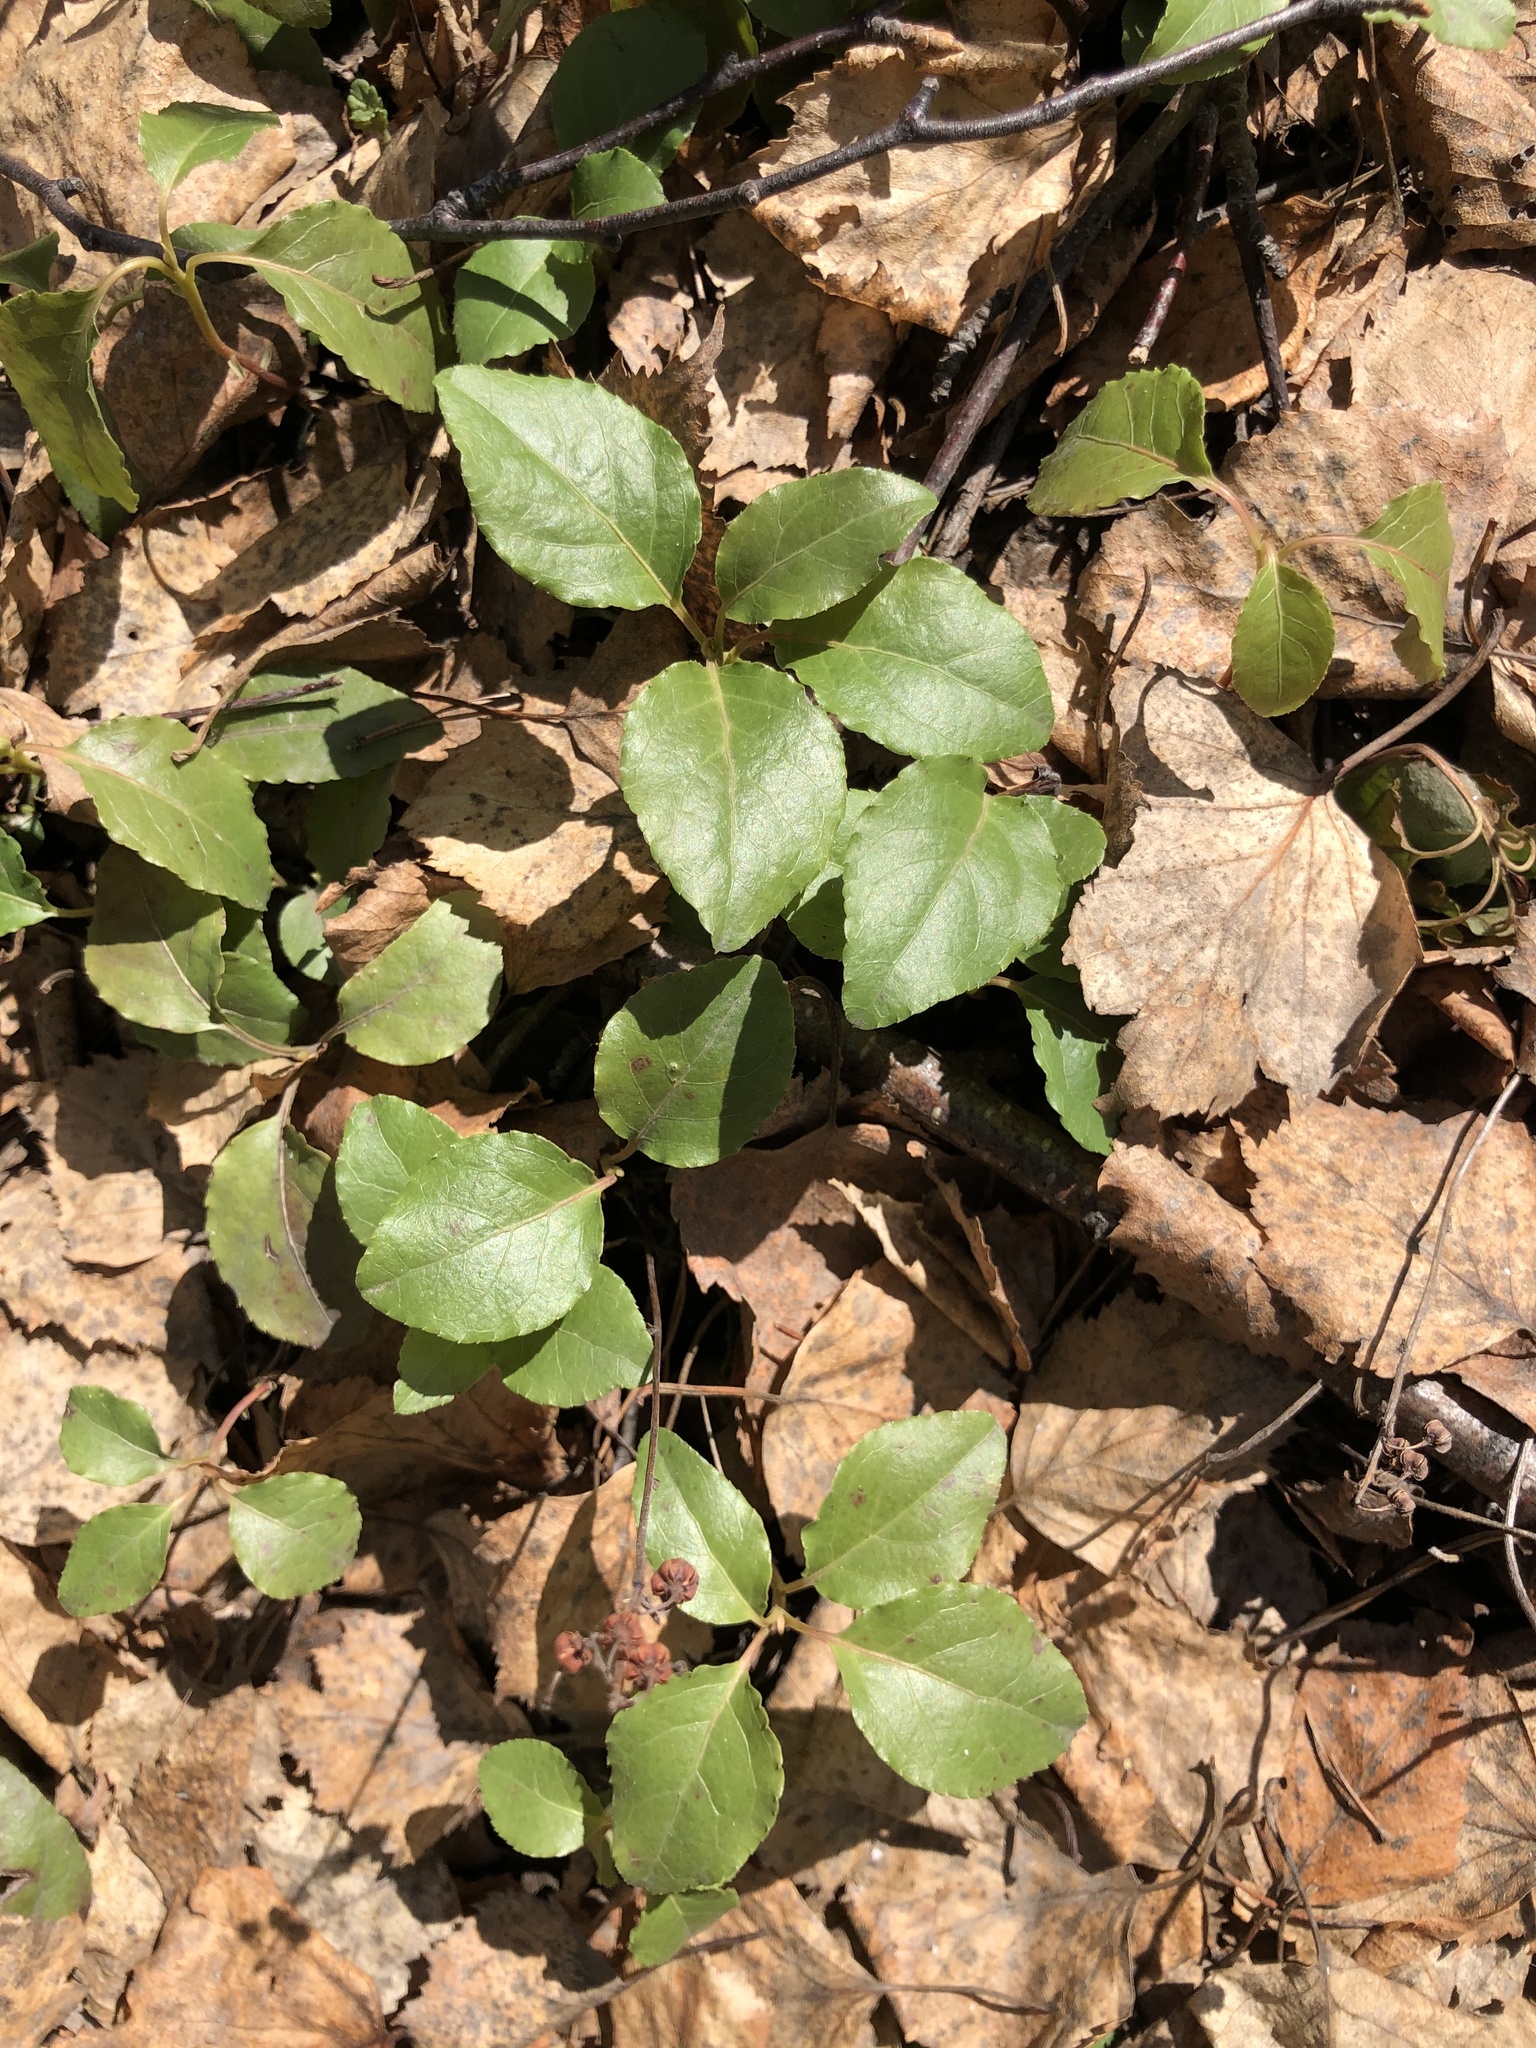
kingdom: Plantae
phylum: Tracheophyta
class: Magnoliopsida
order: Ericales
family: Ericaceae
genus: Orthilia
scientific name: Orthilia secunda
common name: One-sided orthilia
